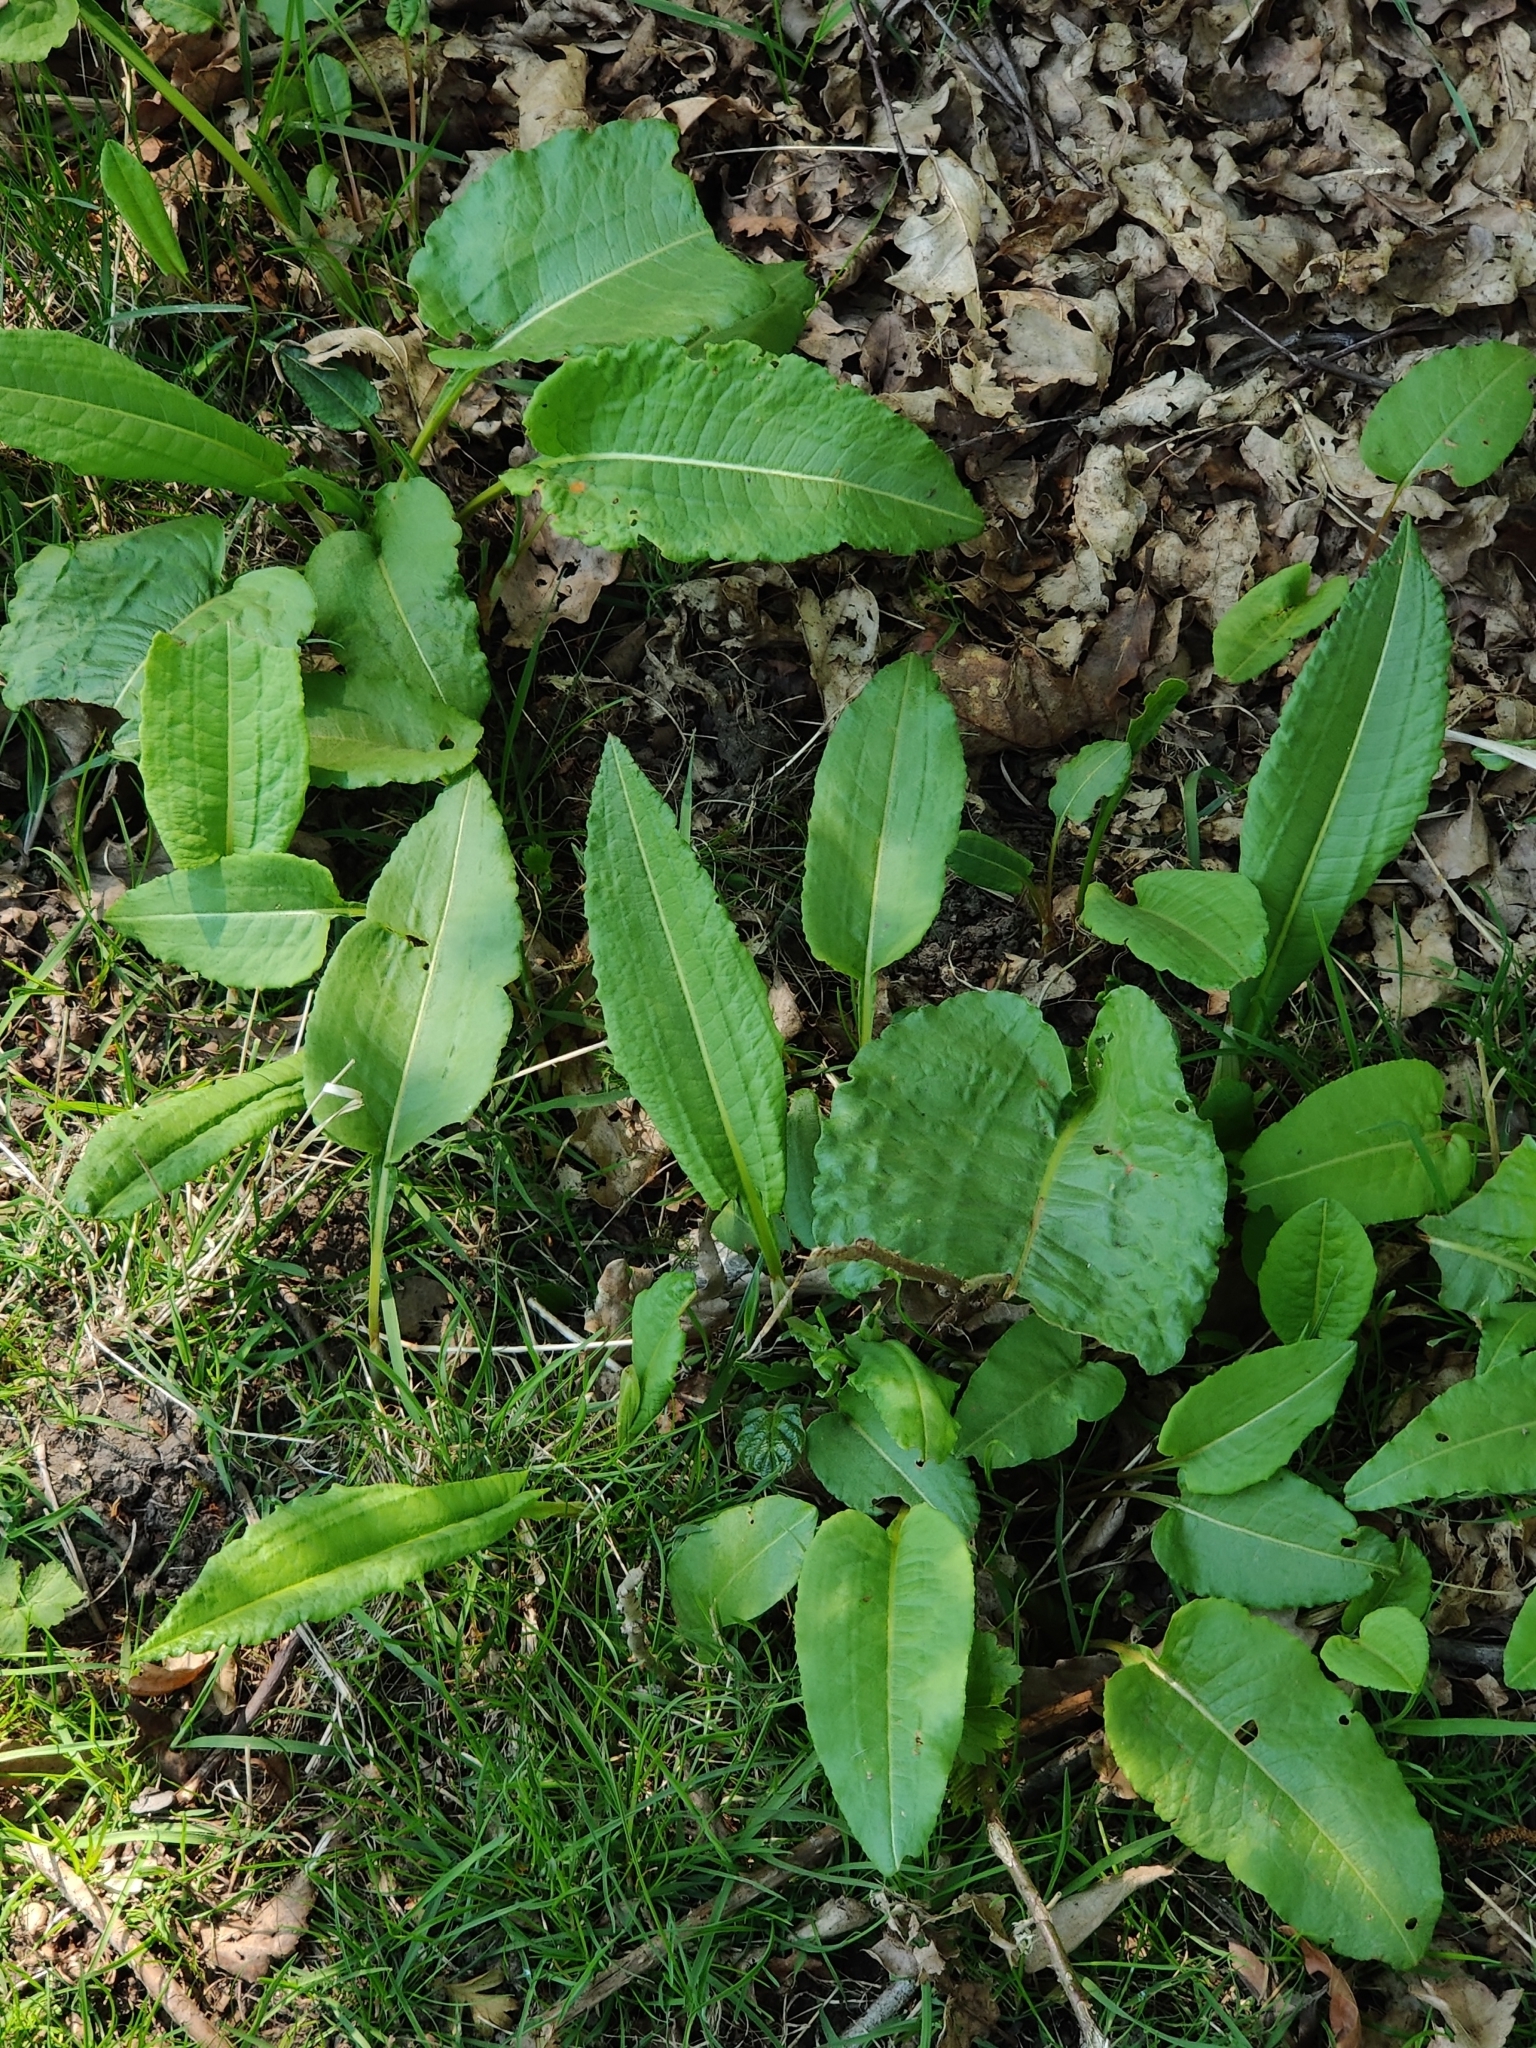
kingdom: Plantae
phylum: Tracheophyta
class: Magnoliopsida
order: Caryophyllales
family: Polygonaceae
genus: Bistorta
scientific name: Bistorta officinalis
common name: Common bistort
